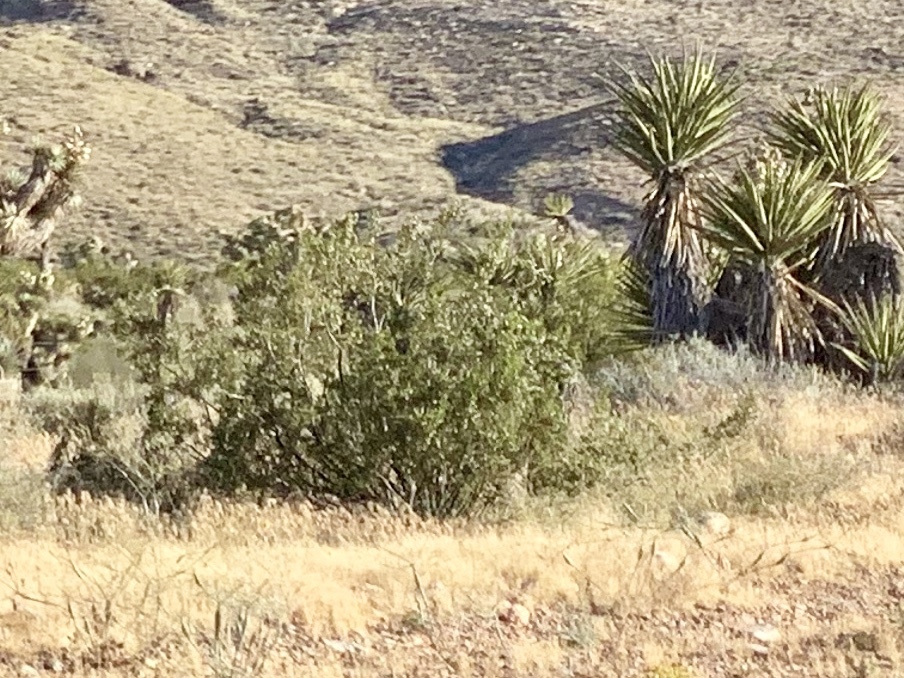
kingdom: Plantae
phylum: Tracheophyta
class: Magnoliopsida
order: Zygophyllales
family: Zygophyllaceae
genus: Larrea
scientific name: Larrea tridentata
